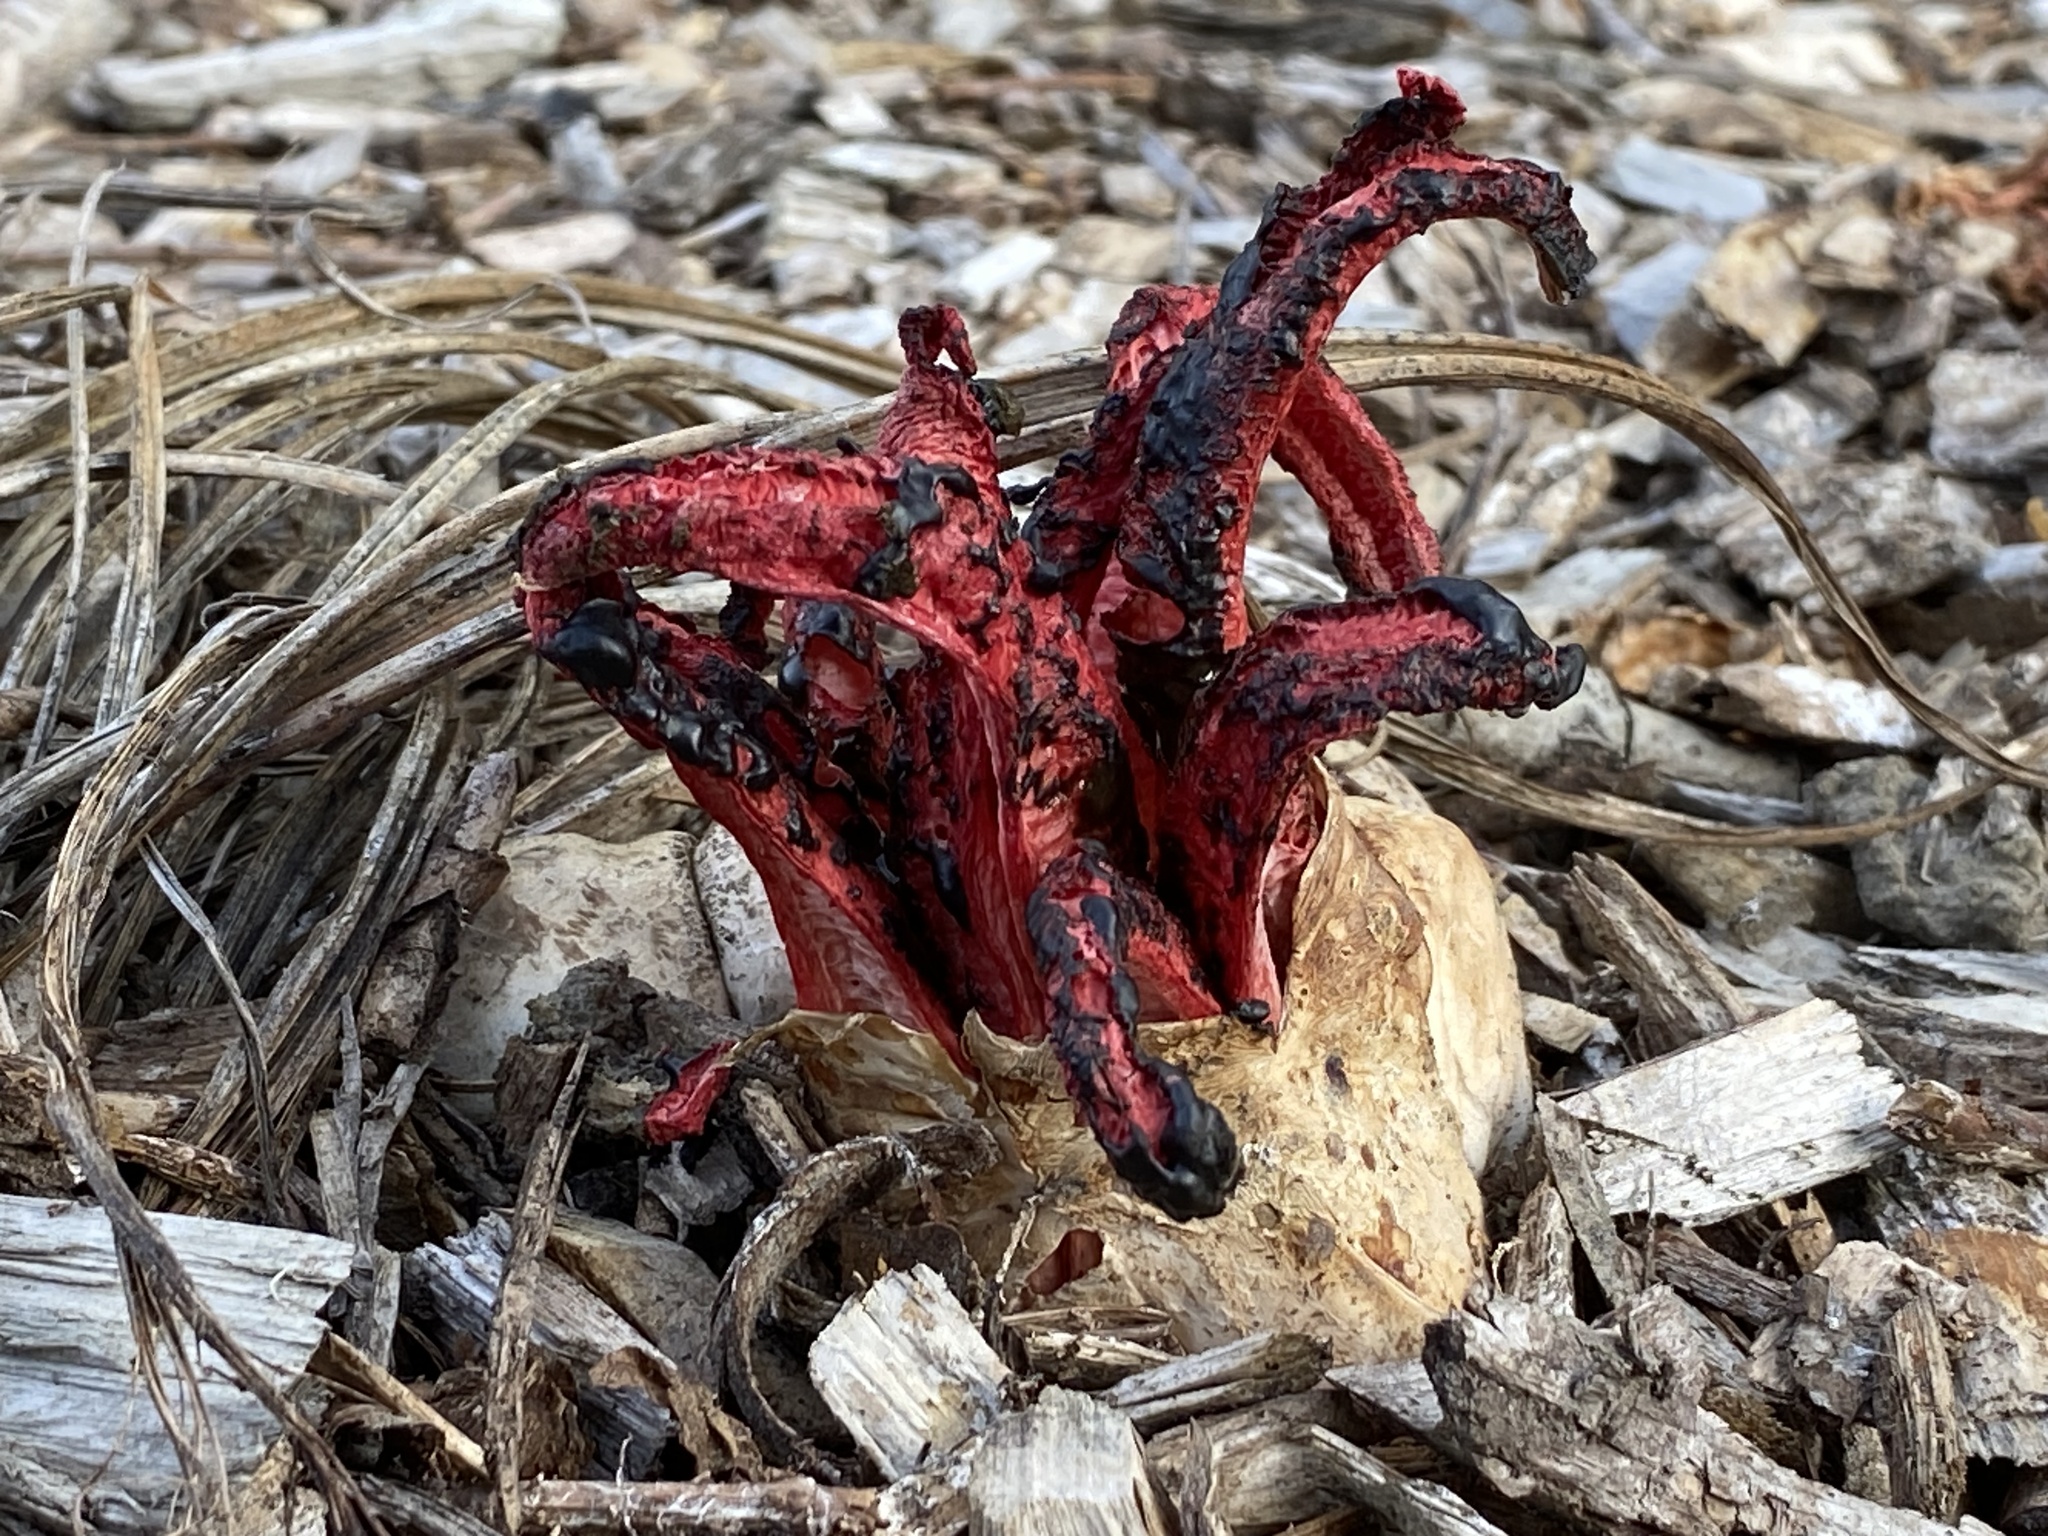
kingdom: Fungi
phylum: Basidiomycota
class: Agaricomycetes
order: Phallales
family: Phallaceae
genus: Clathrus
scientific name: Clathrus archeri
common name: Devil's fingers
